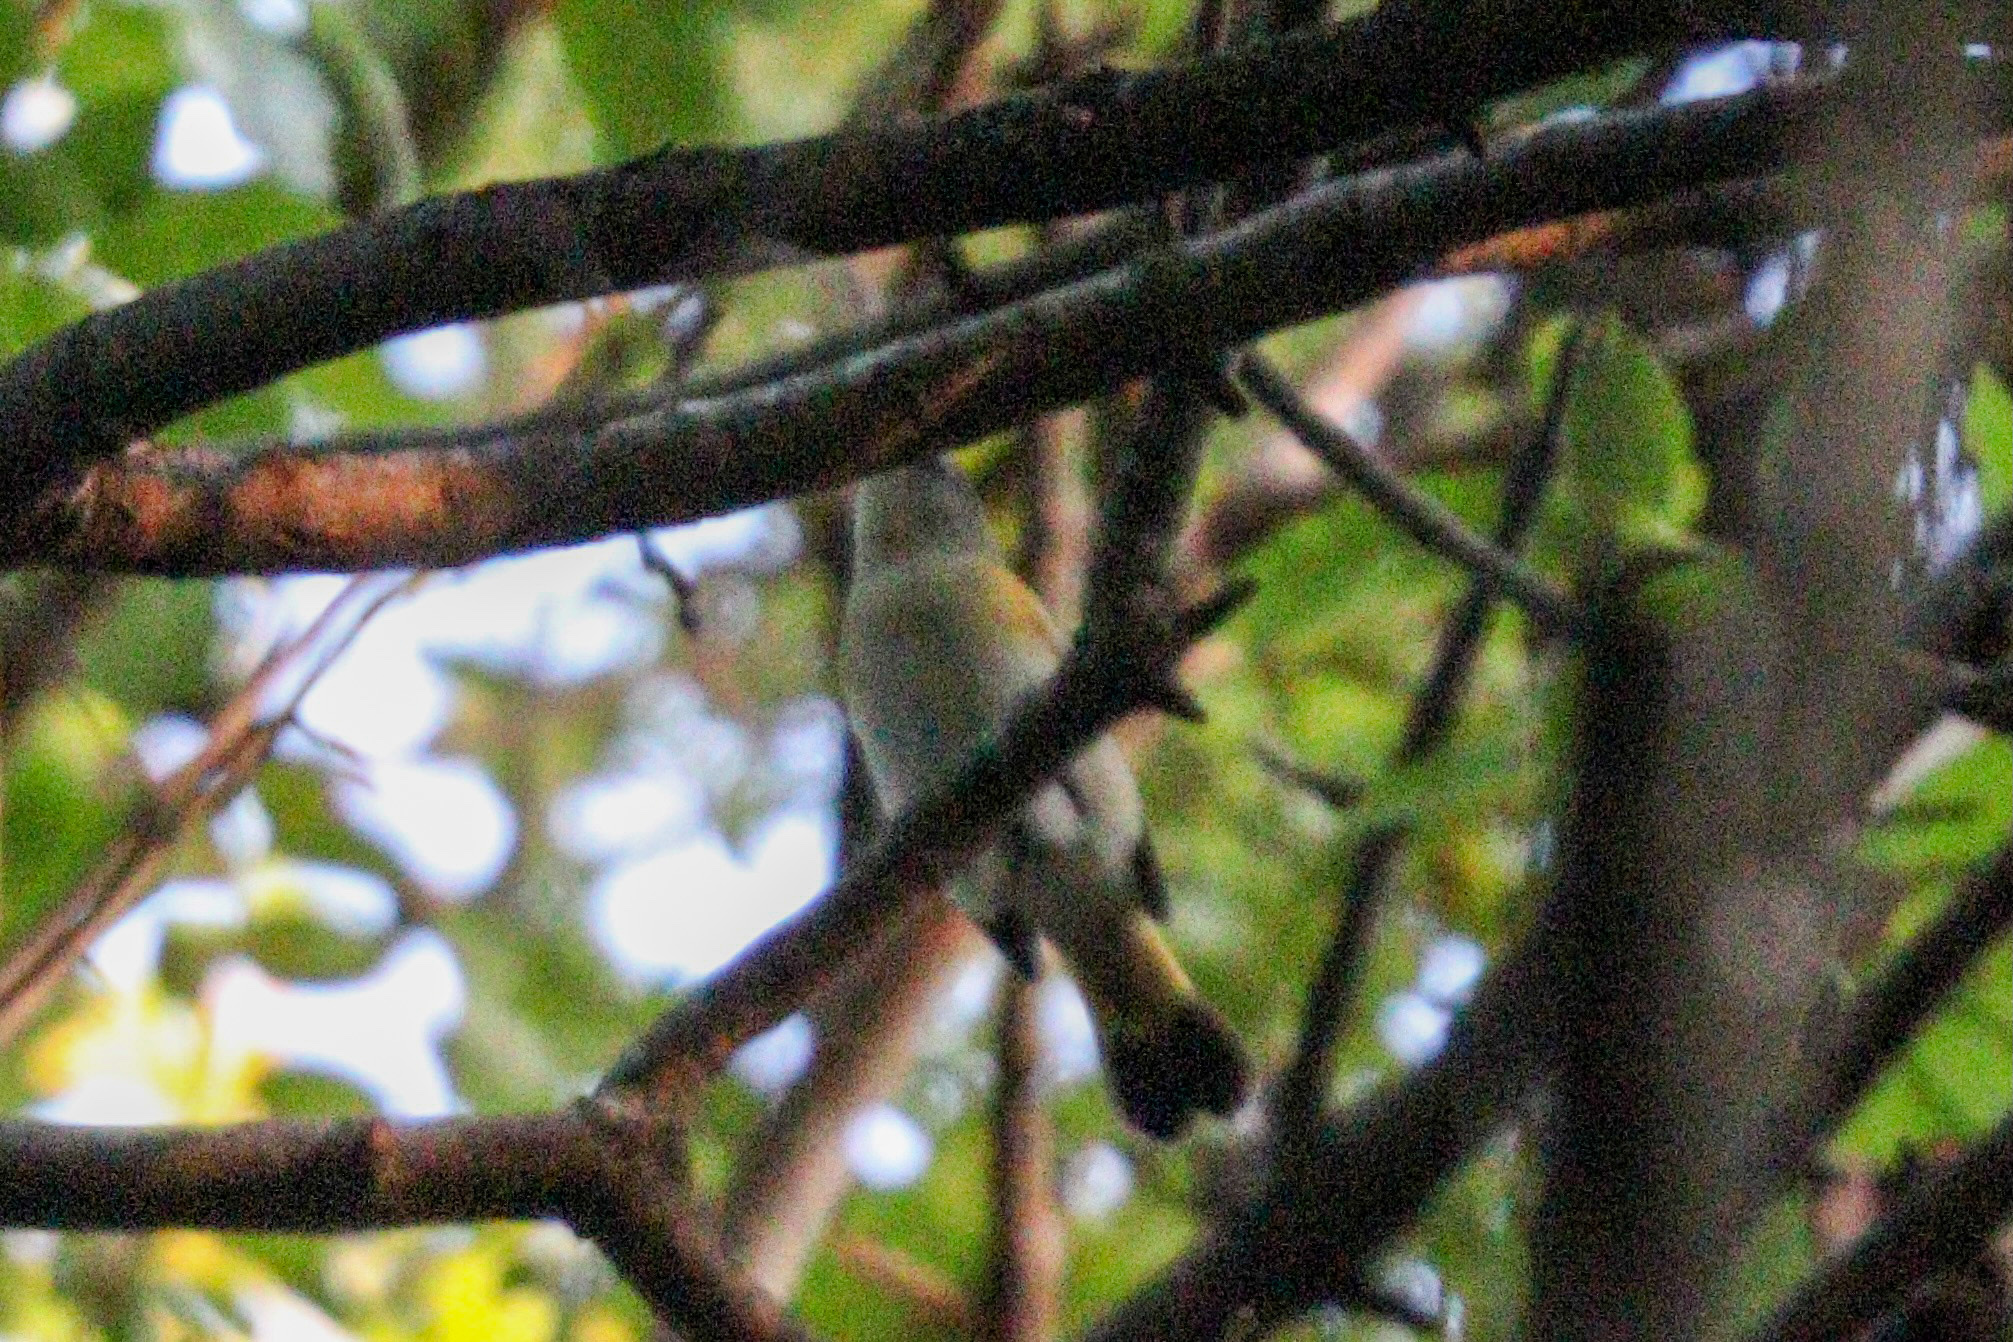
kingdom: Animalia
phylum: Chordata
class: Aves
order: Passeriformes
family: Parulidae
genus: Setophaga
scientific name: Setophaga ruticilla
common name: American redstart
